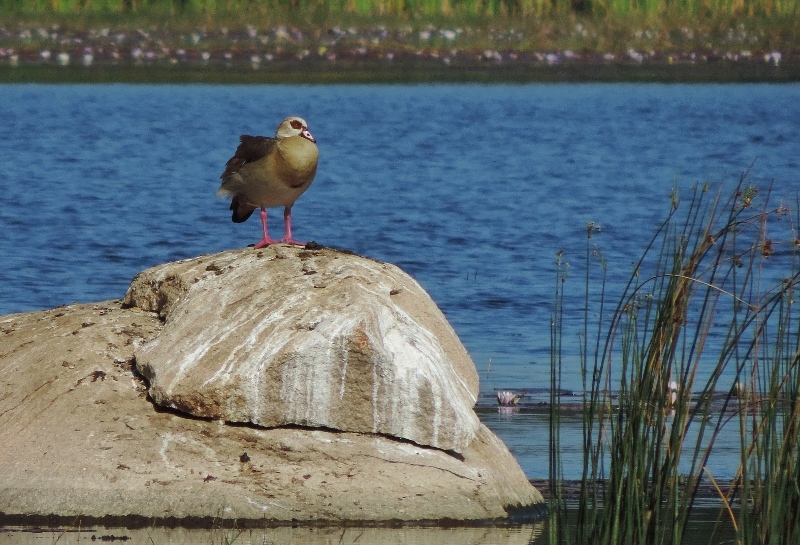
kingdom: Animalia
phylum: Chordata
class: Aves
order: Anseriformes
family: Anatidae
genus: Alopochen
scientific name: Alopochen aegyptiaca
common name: Egyptian goose
